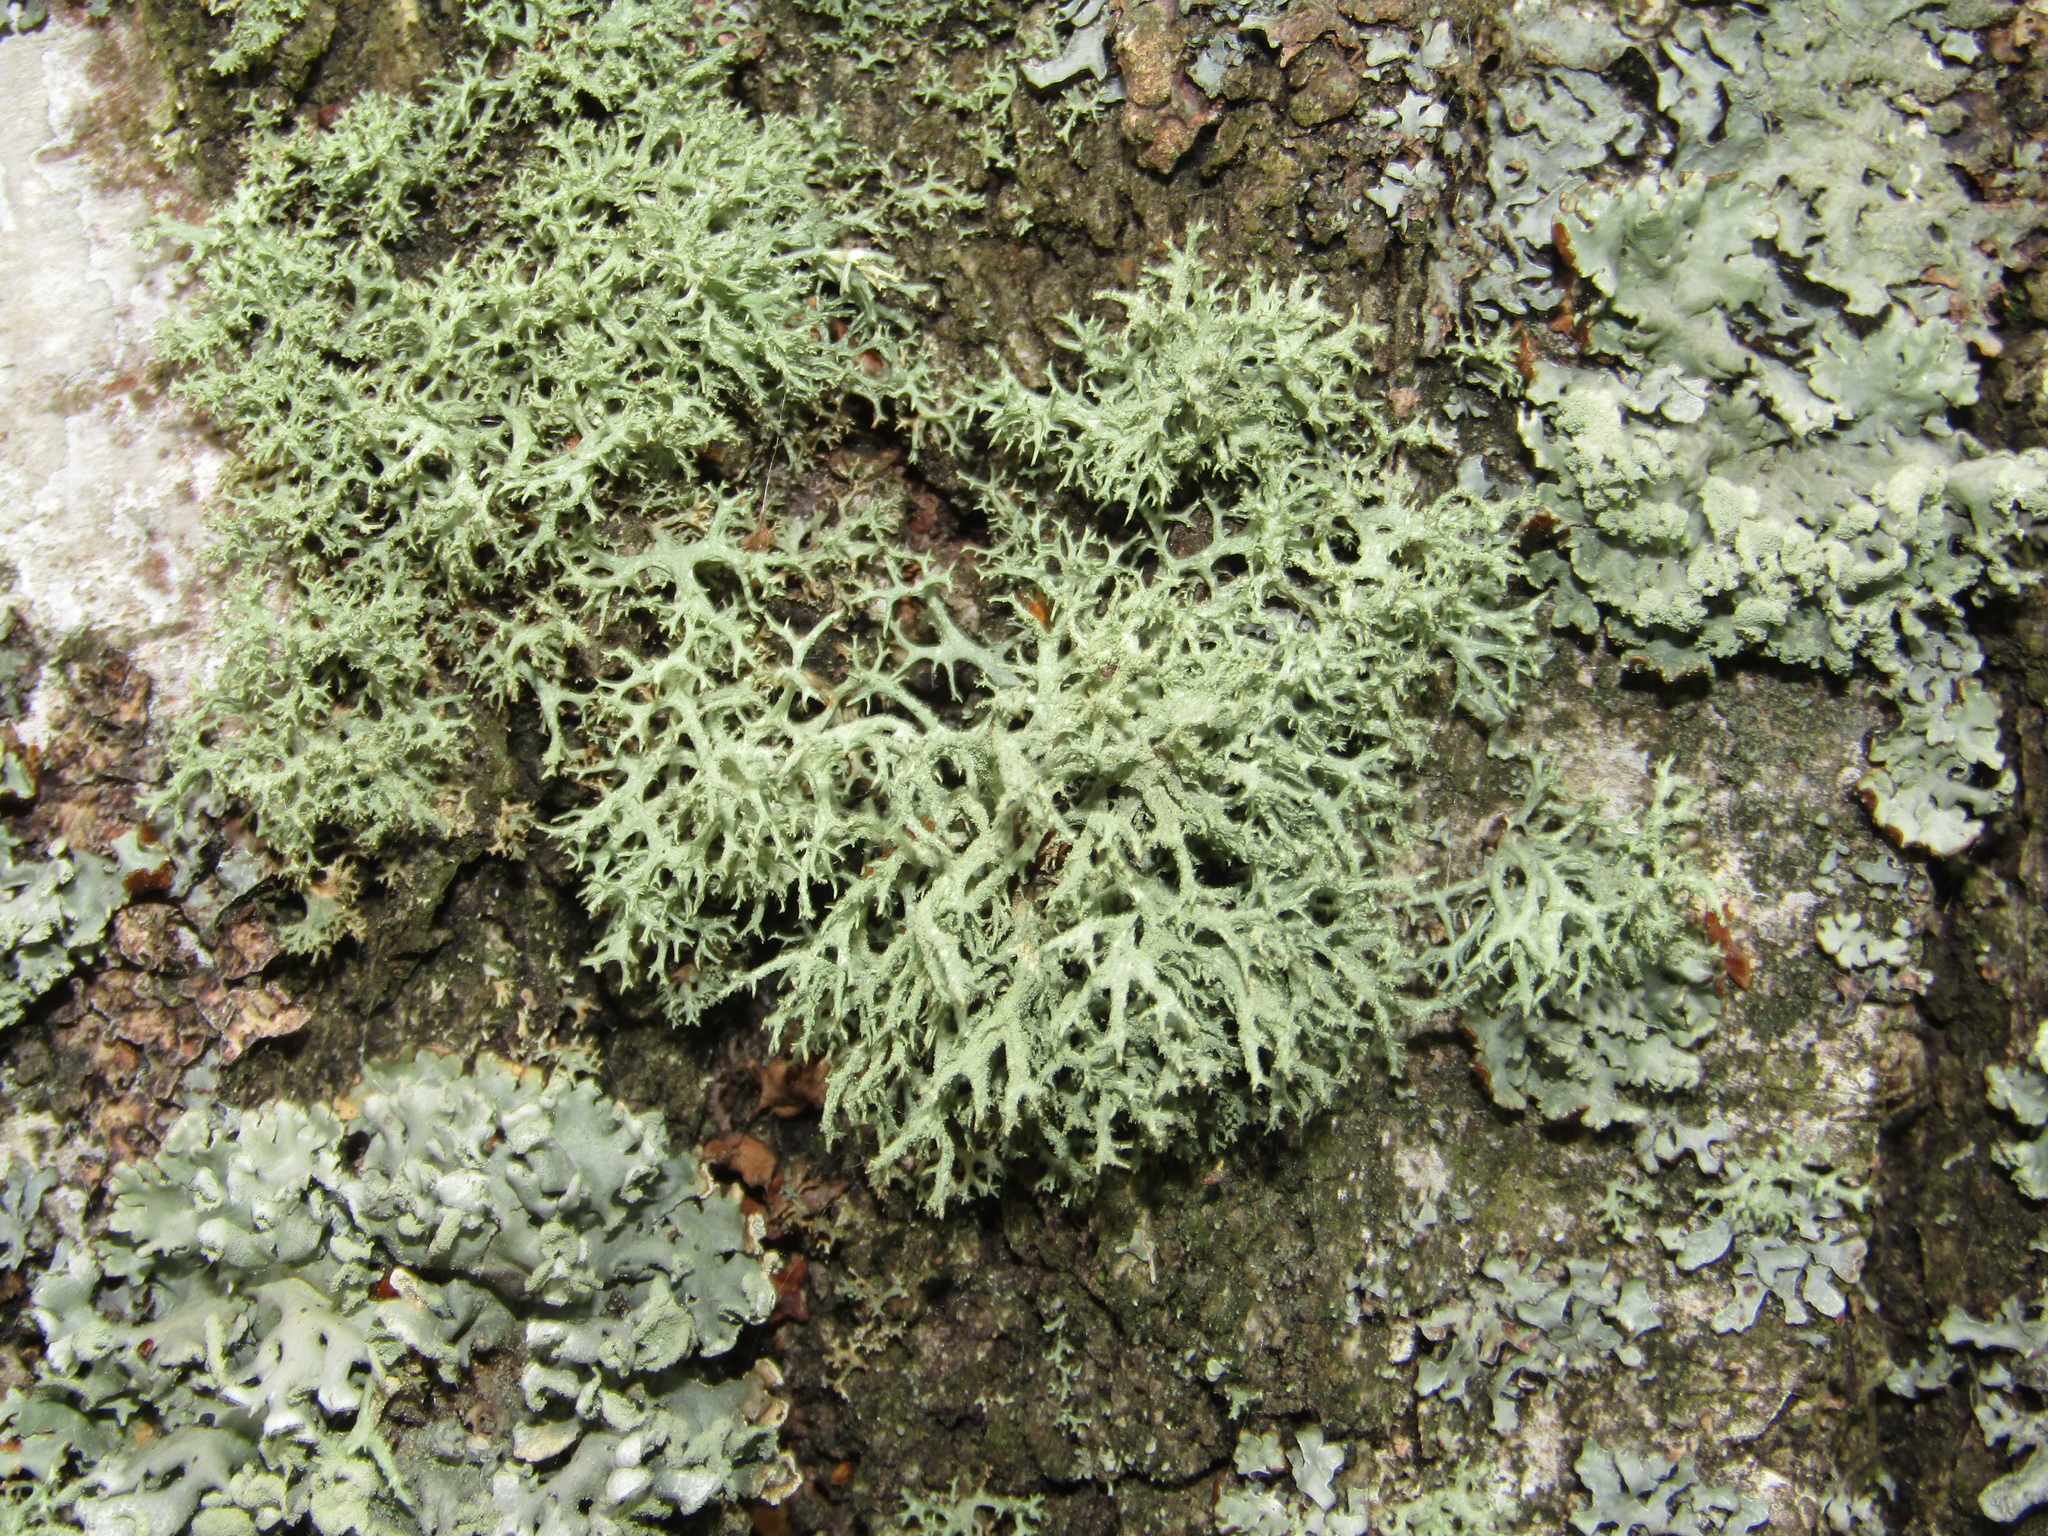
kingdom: Fungi
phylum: Ascomycota
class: Lecanoromycetes
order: Lecanorales
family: Parmeliaceae
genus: Evernia
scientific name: Evernia mesomorpha
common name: Boreal oak moss lichen
